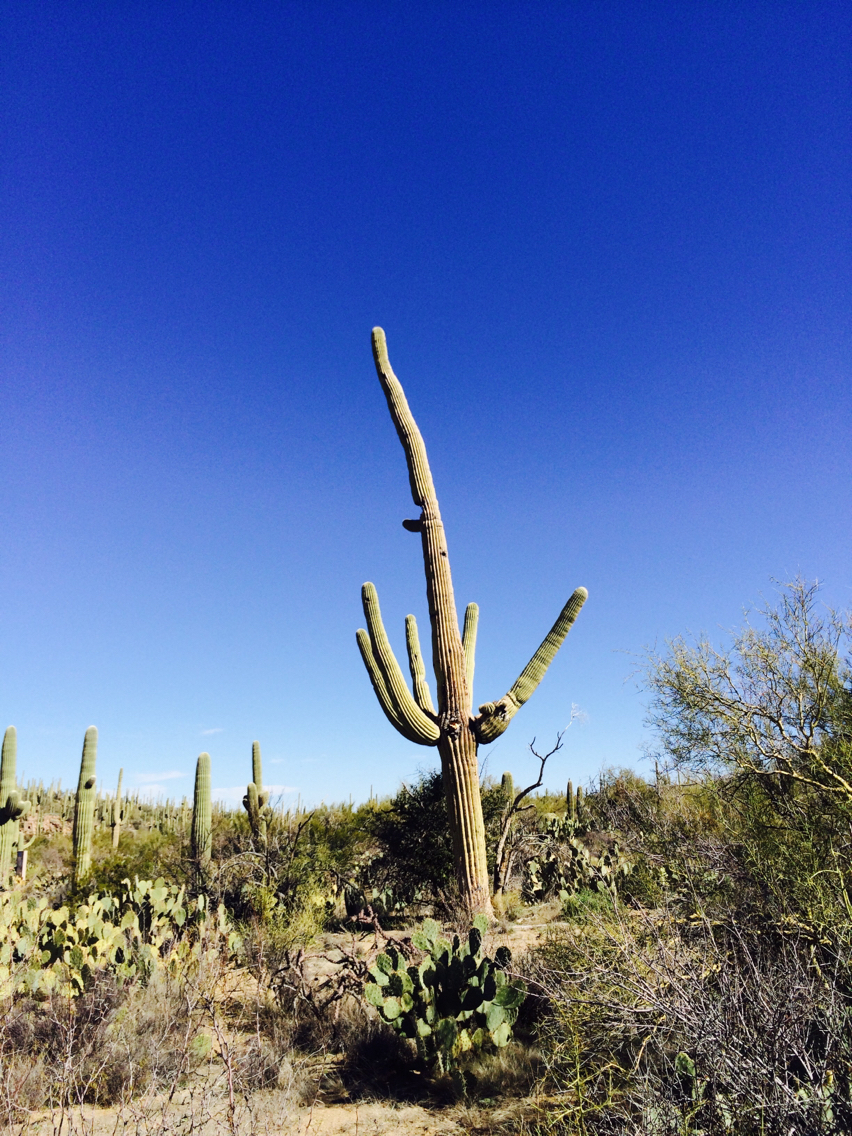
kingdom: Plantae
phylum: Tracheophyta
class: Magnoliopsida
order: Caryophyllales
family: Cactaceae
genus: Carnegiea
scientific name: Carnegiea gigantea
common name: Saguaro
